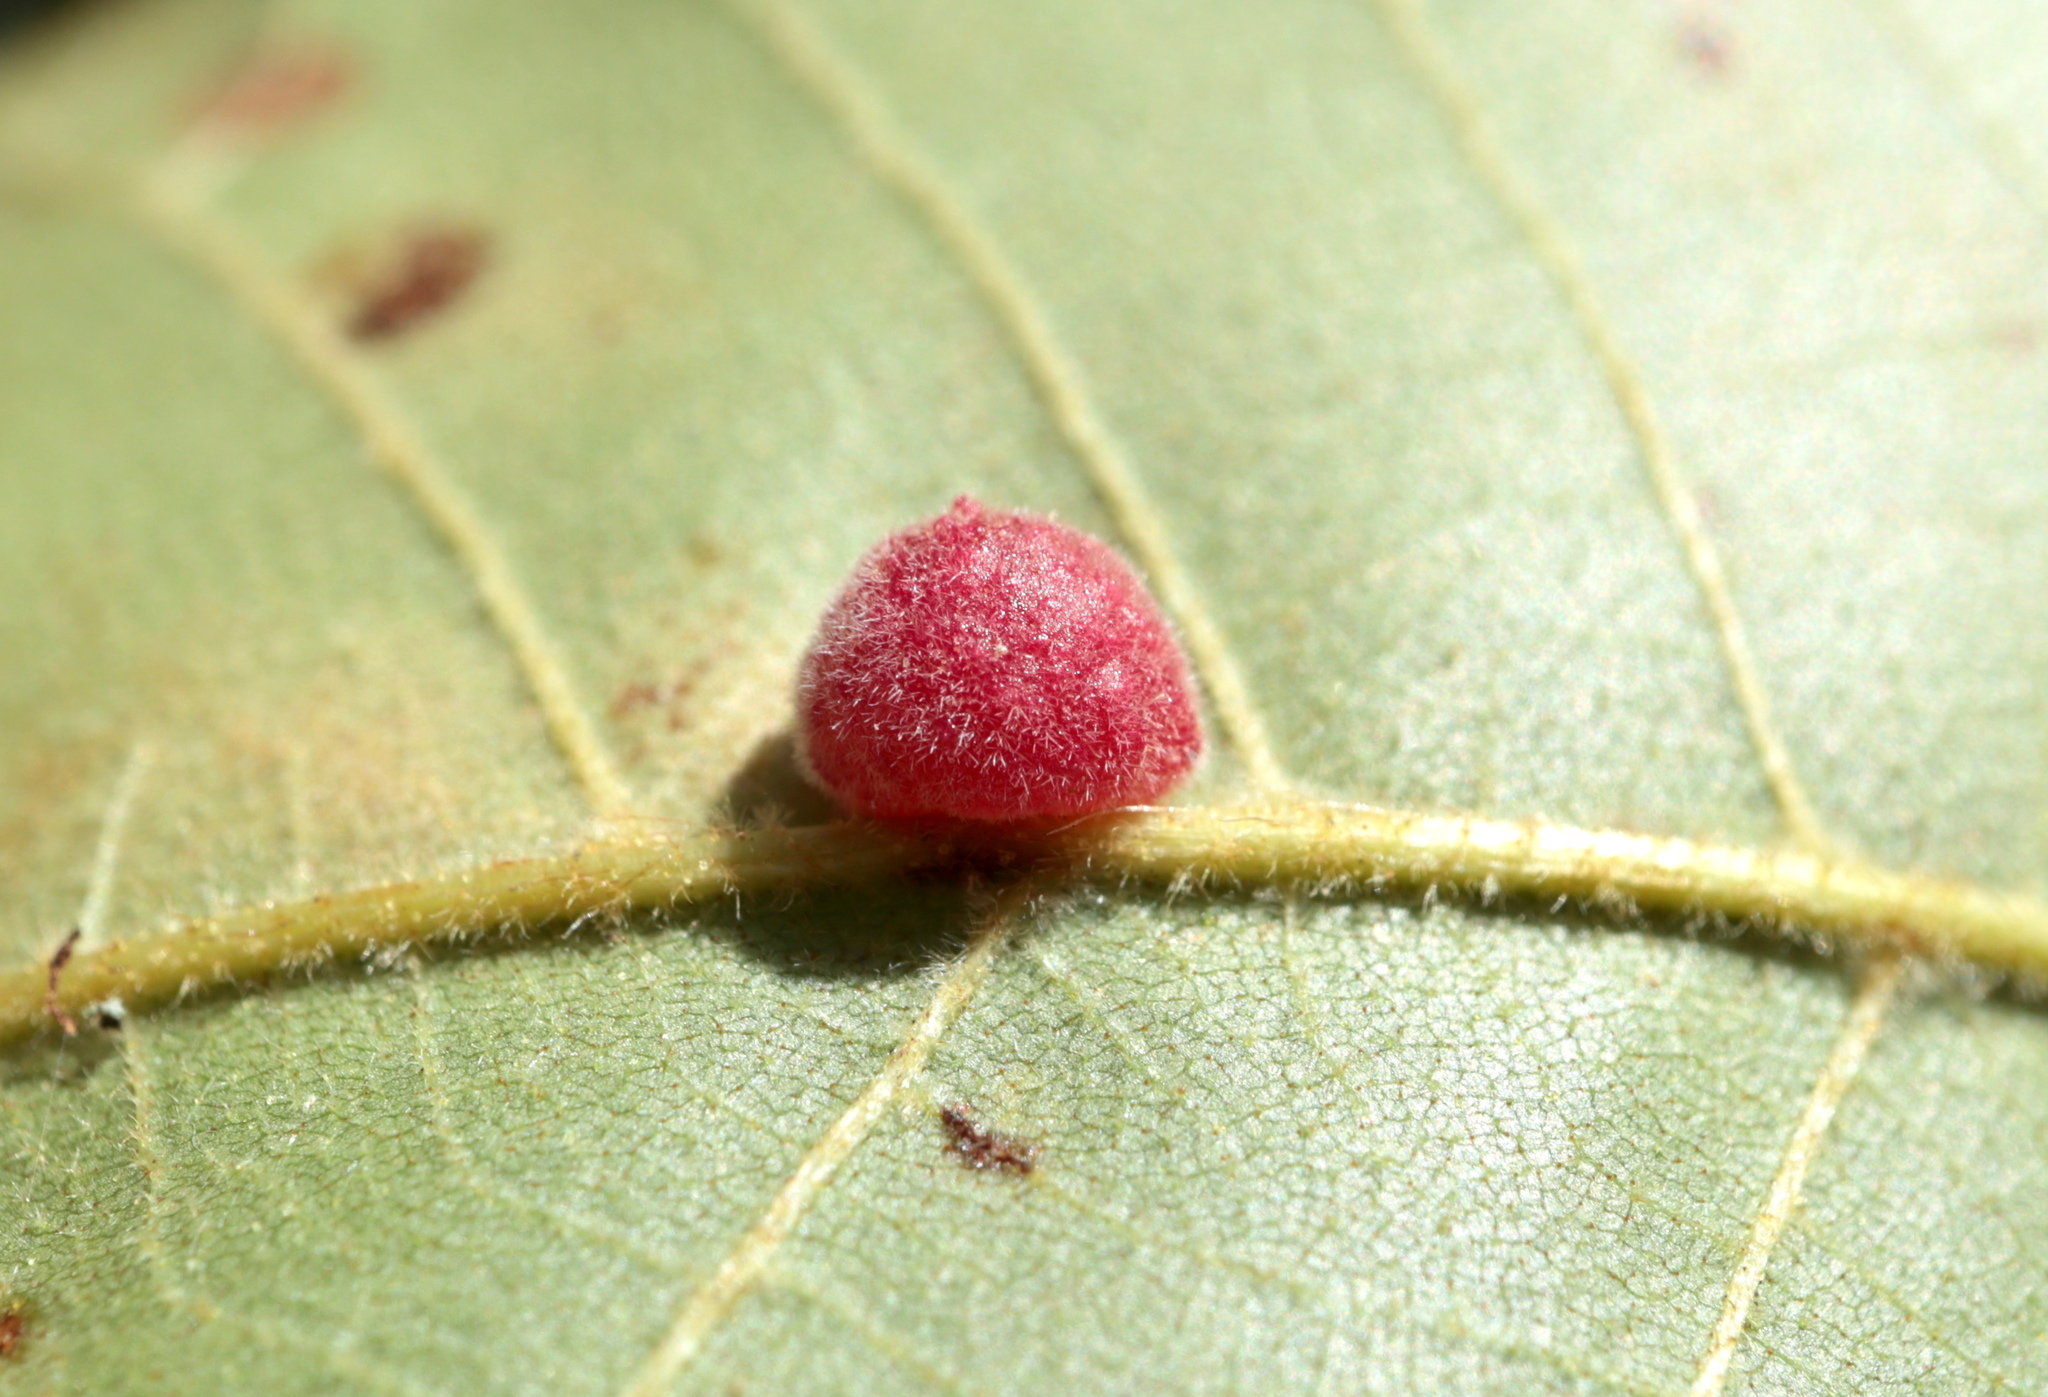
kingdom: Animalia
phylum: Arthropoda
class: Insecta
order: Diptera
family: Cecidomyiidae
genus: Caryomyia
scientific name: Caryomyia persicoides
